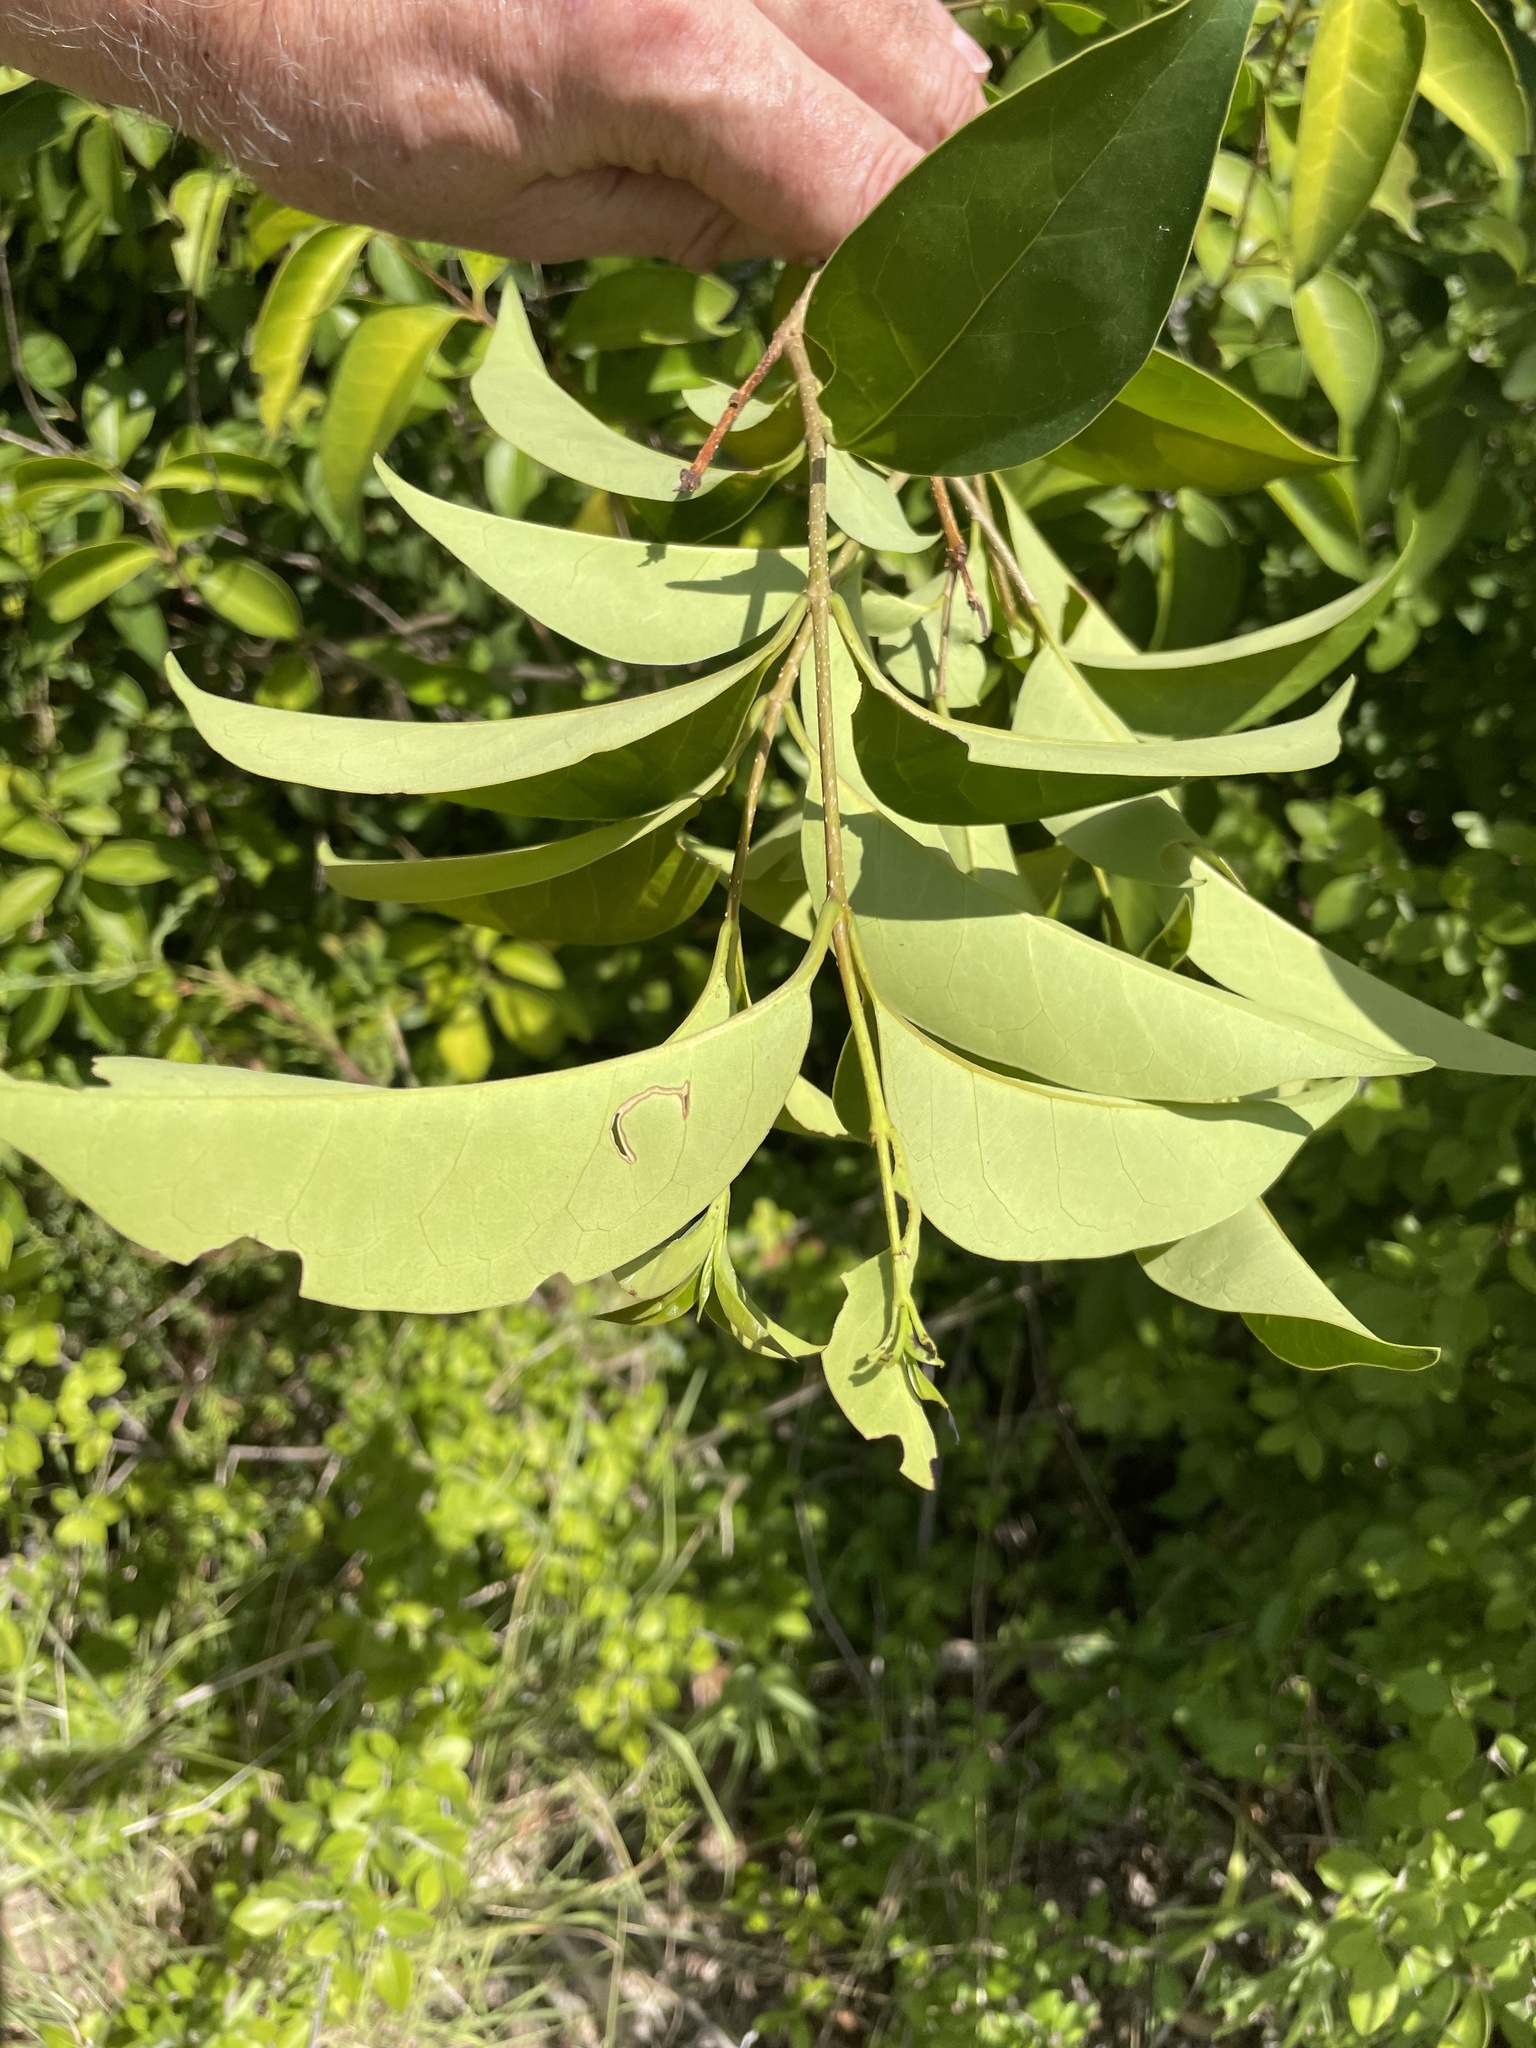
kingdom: Plantae
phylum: Tracheophyta
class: Magnoliopsida
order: Lamiales
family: Oleaceae
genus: Ligustrum
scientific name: Ligustrum lucidum
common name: Glossy privet
